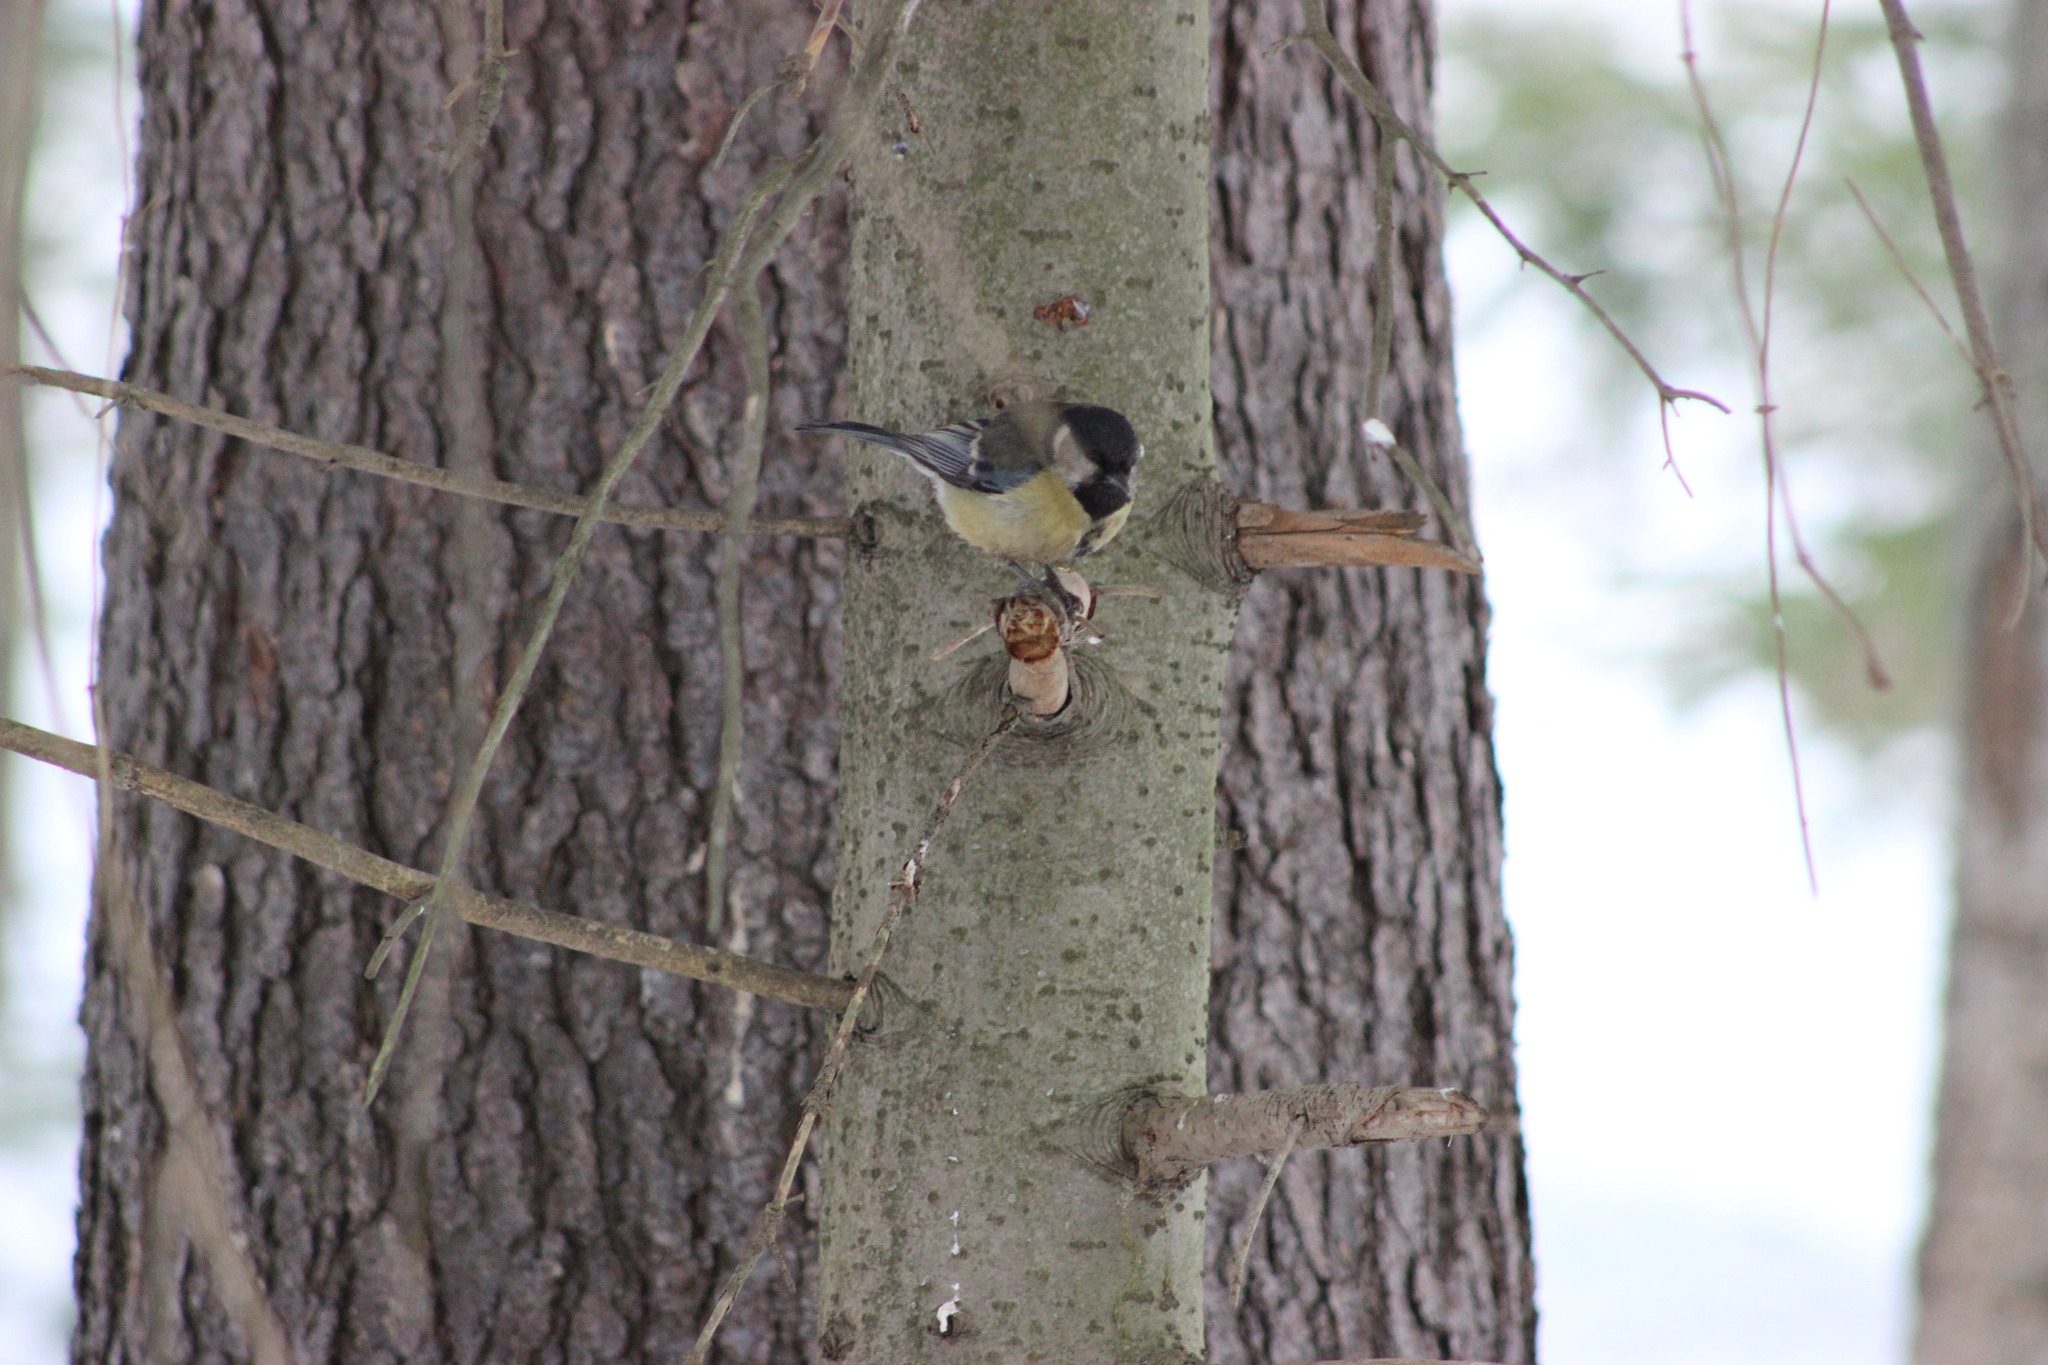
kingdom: Animalia
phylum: Chordata
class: Aves
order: Passeriformes
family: Paridae
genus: Parus
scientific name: Parus major
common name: Great tit
